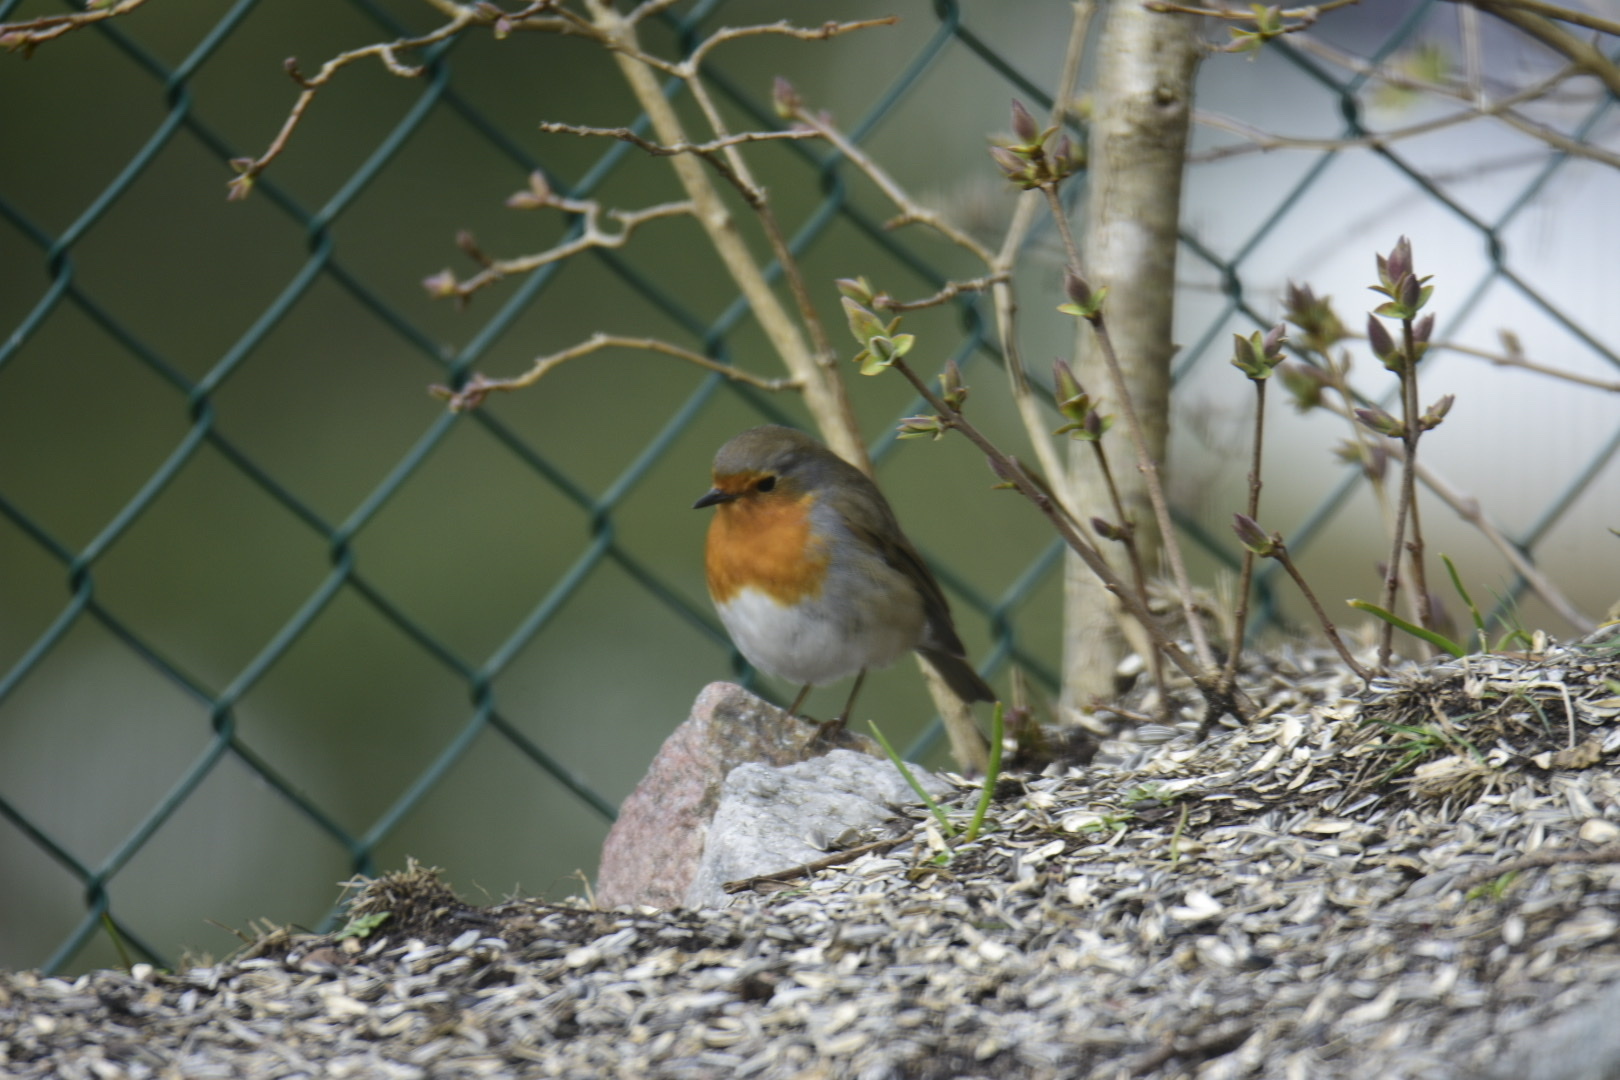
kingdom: Animalia
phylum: Chordata
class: Aves
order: Passeriformes
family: Muscicapidae
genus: Erithacus
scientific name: Erithacus rubecula
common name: European robin
